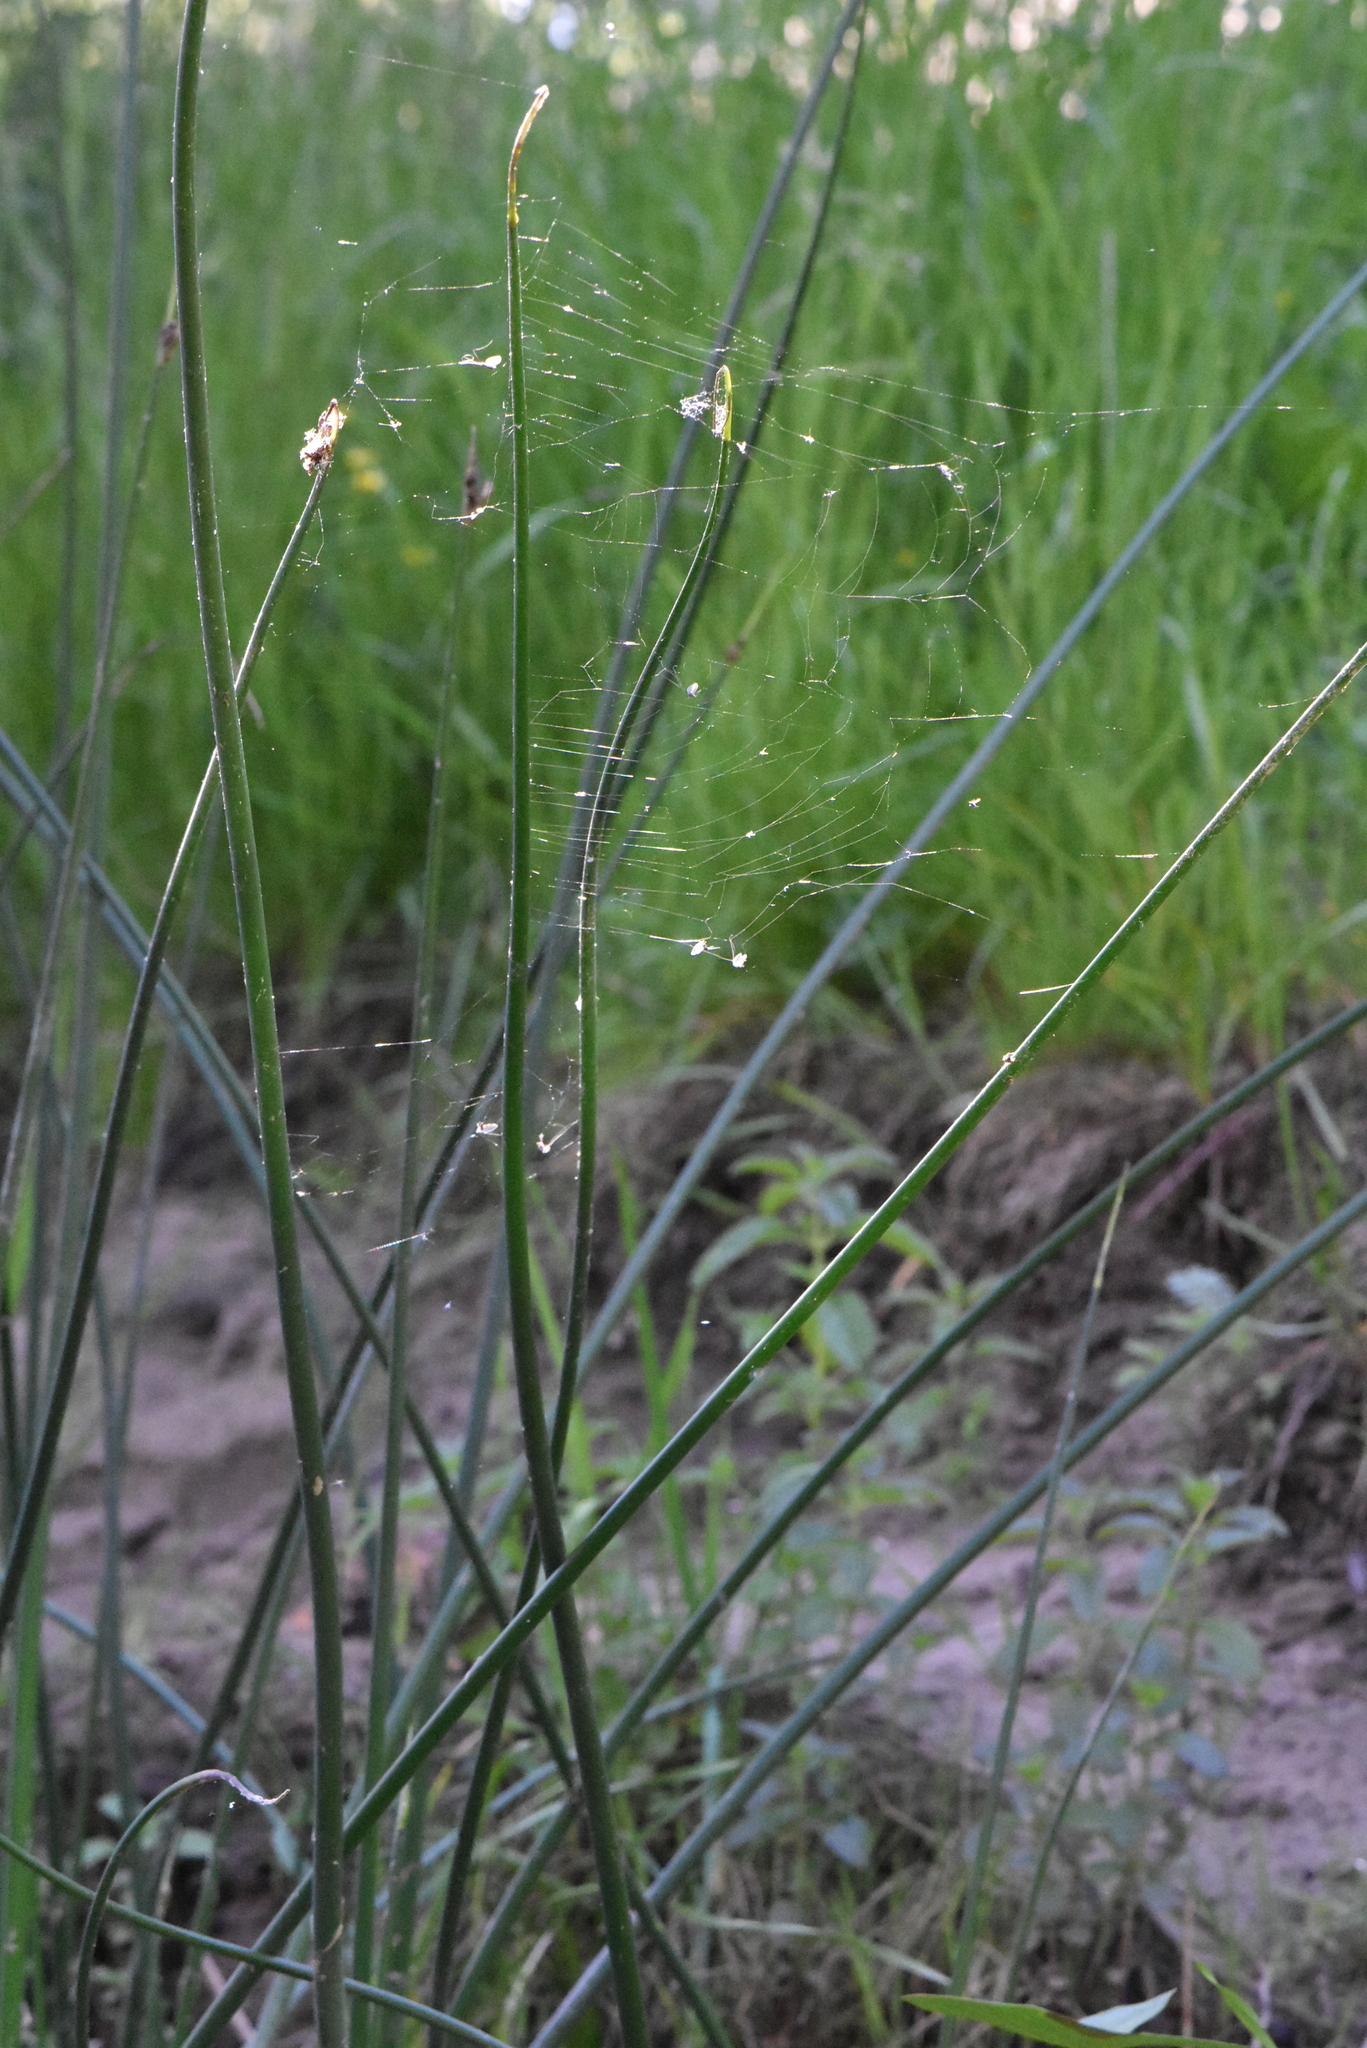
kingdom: Plantae
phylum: Tracheophyta
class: Liliopsida
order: Poales
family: Cyperaceae
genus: Schoenoplectus
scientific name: Schoenoplectus lacustris
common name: Common club-rush
